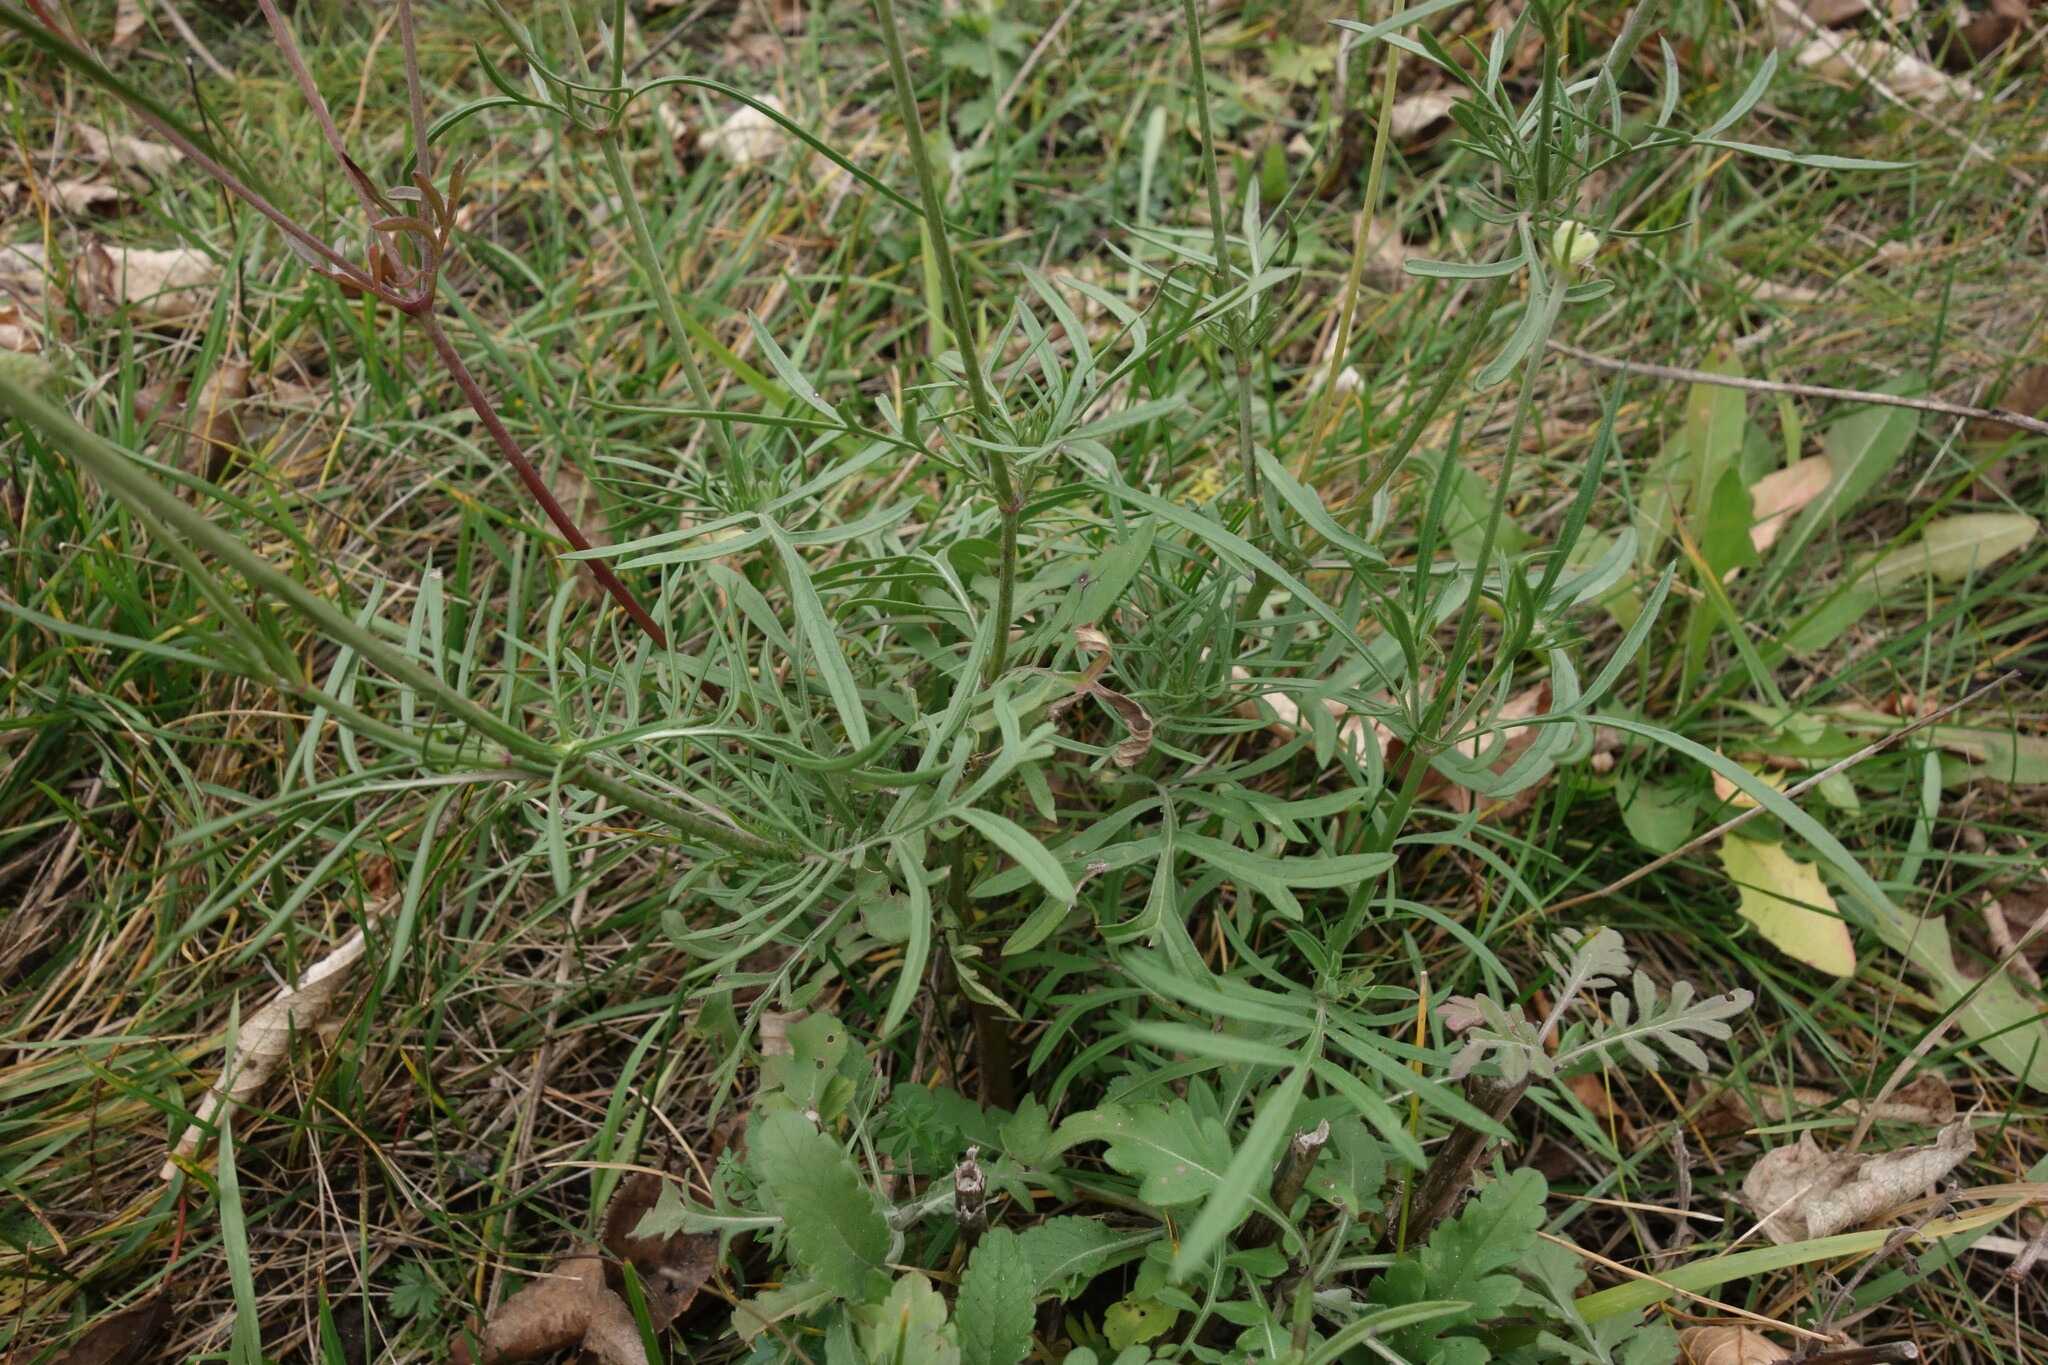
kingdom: Plantae
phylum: Tracheophyta
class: Magnoliopsida
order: Dipsacales
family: Caprifoliaceae
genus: Scabiosa
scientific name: Scabiosa ochroleuca
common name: Cream pincushions
